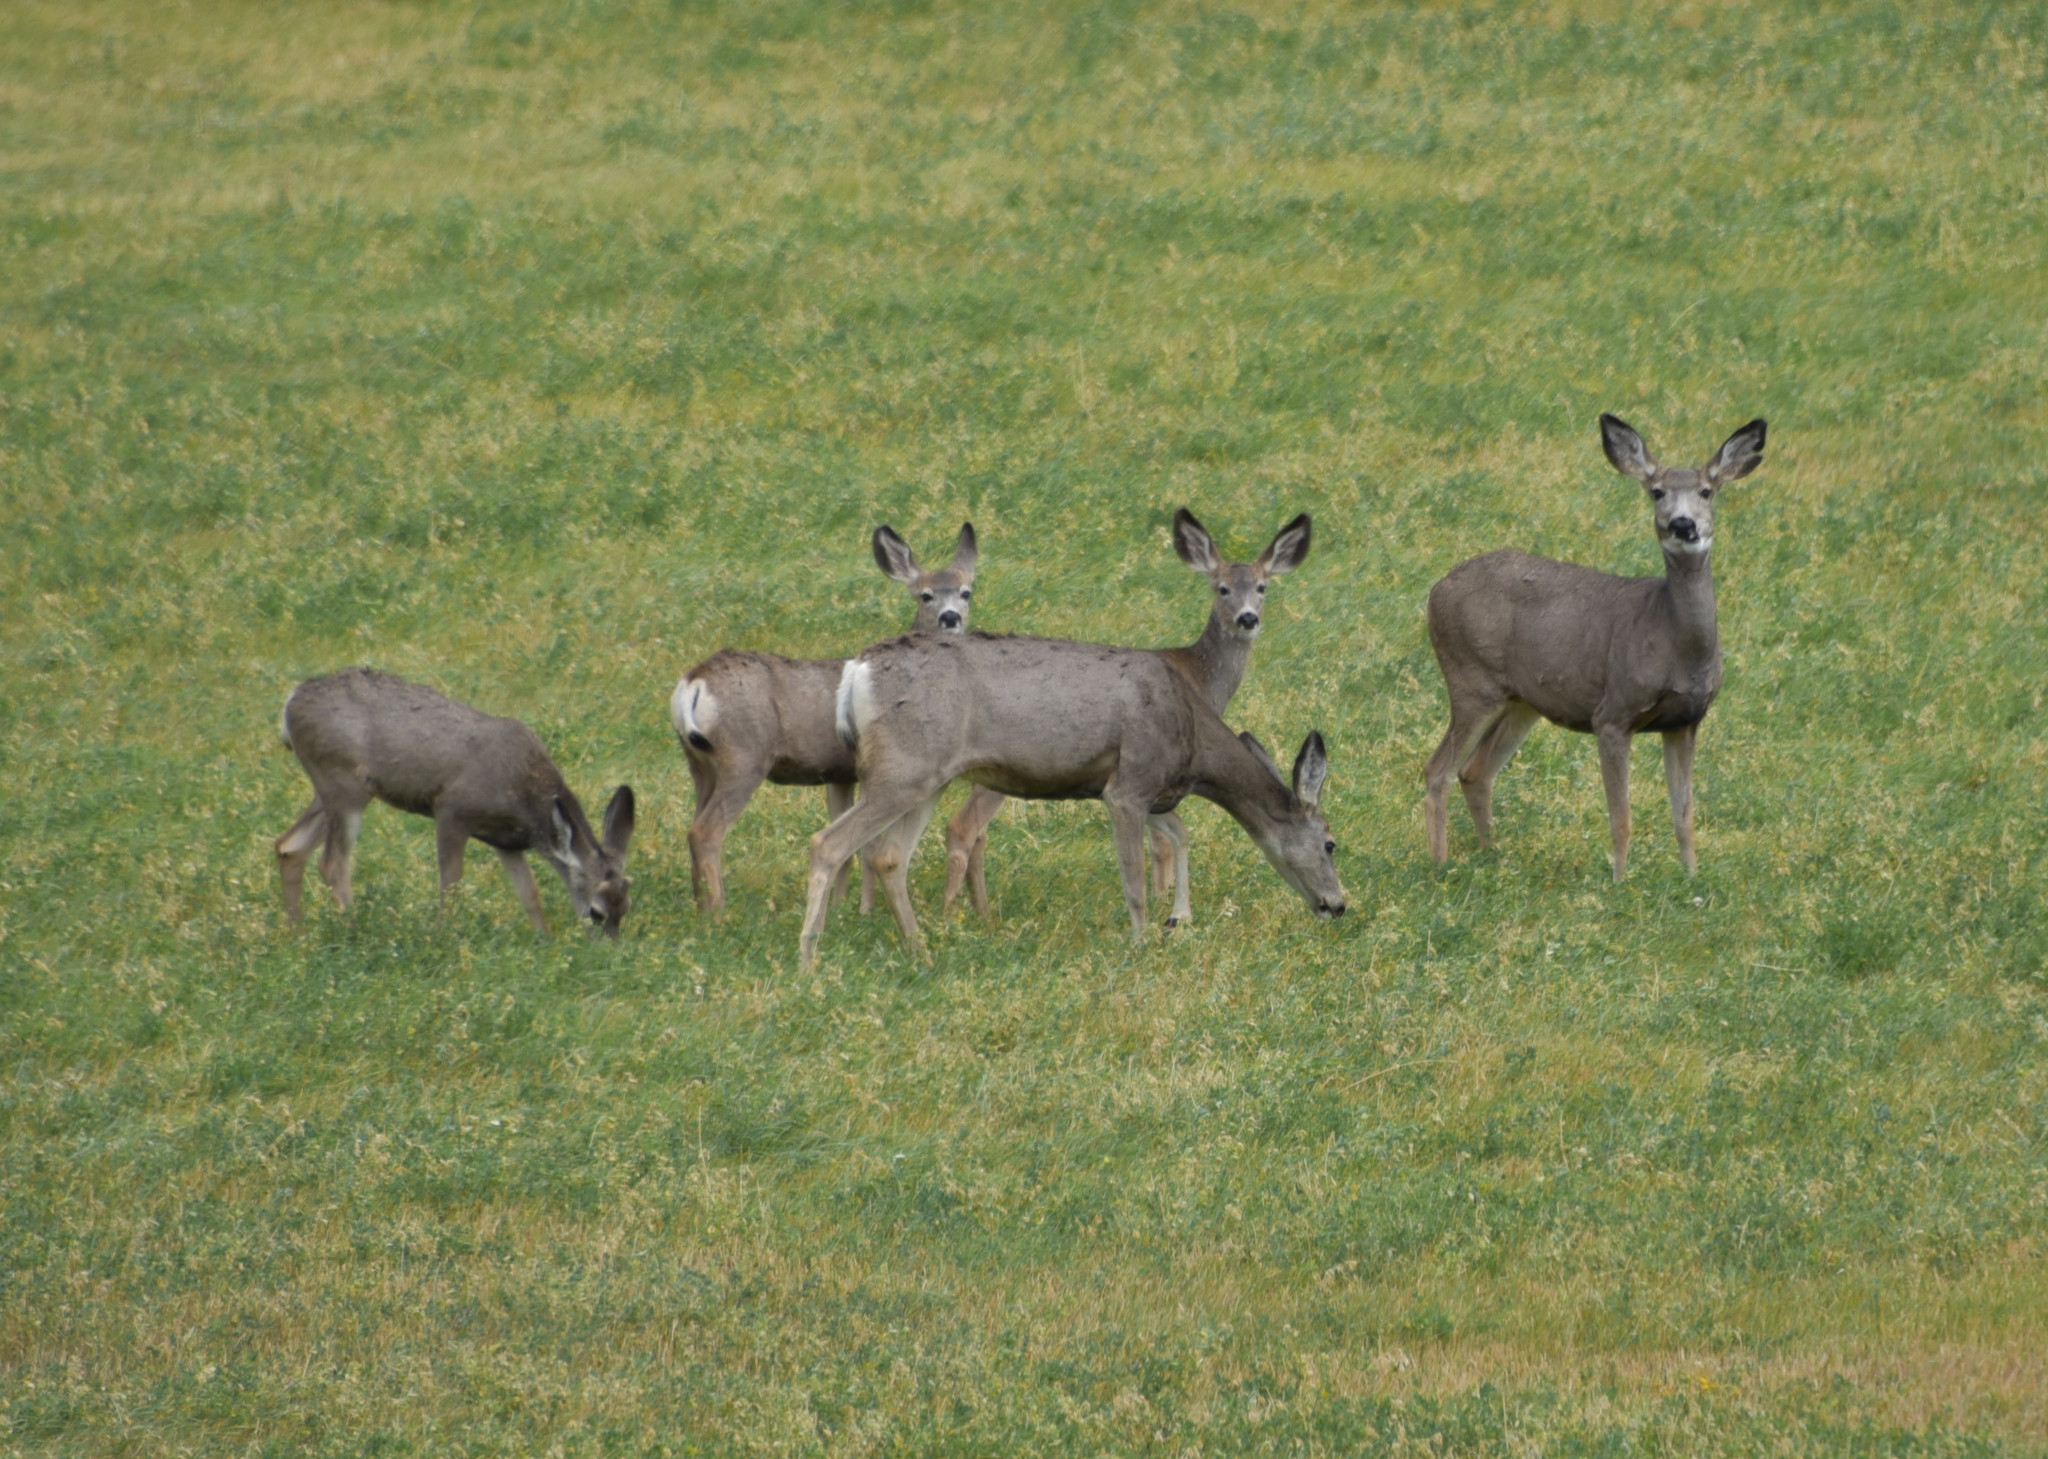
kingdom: Animalia
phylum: Chordata
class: Mammalia
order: Artiodactyla
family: Cervidae
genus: Odocoileus
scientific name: Odocoileus hemionus
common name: Mule deer
